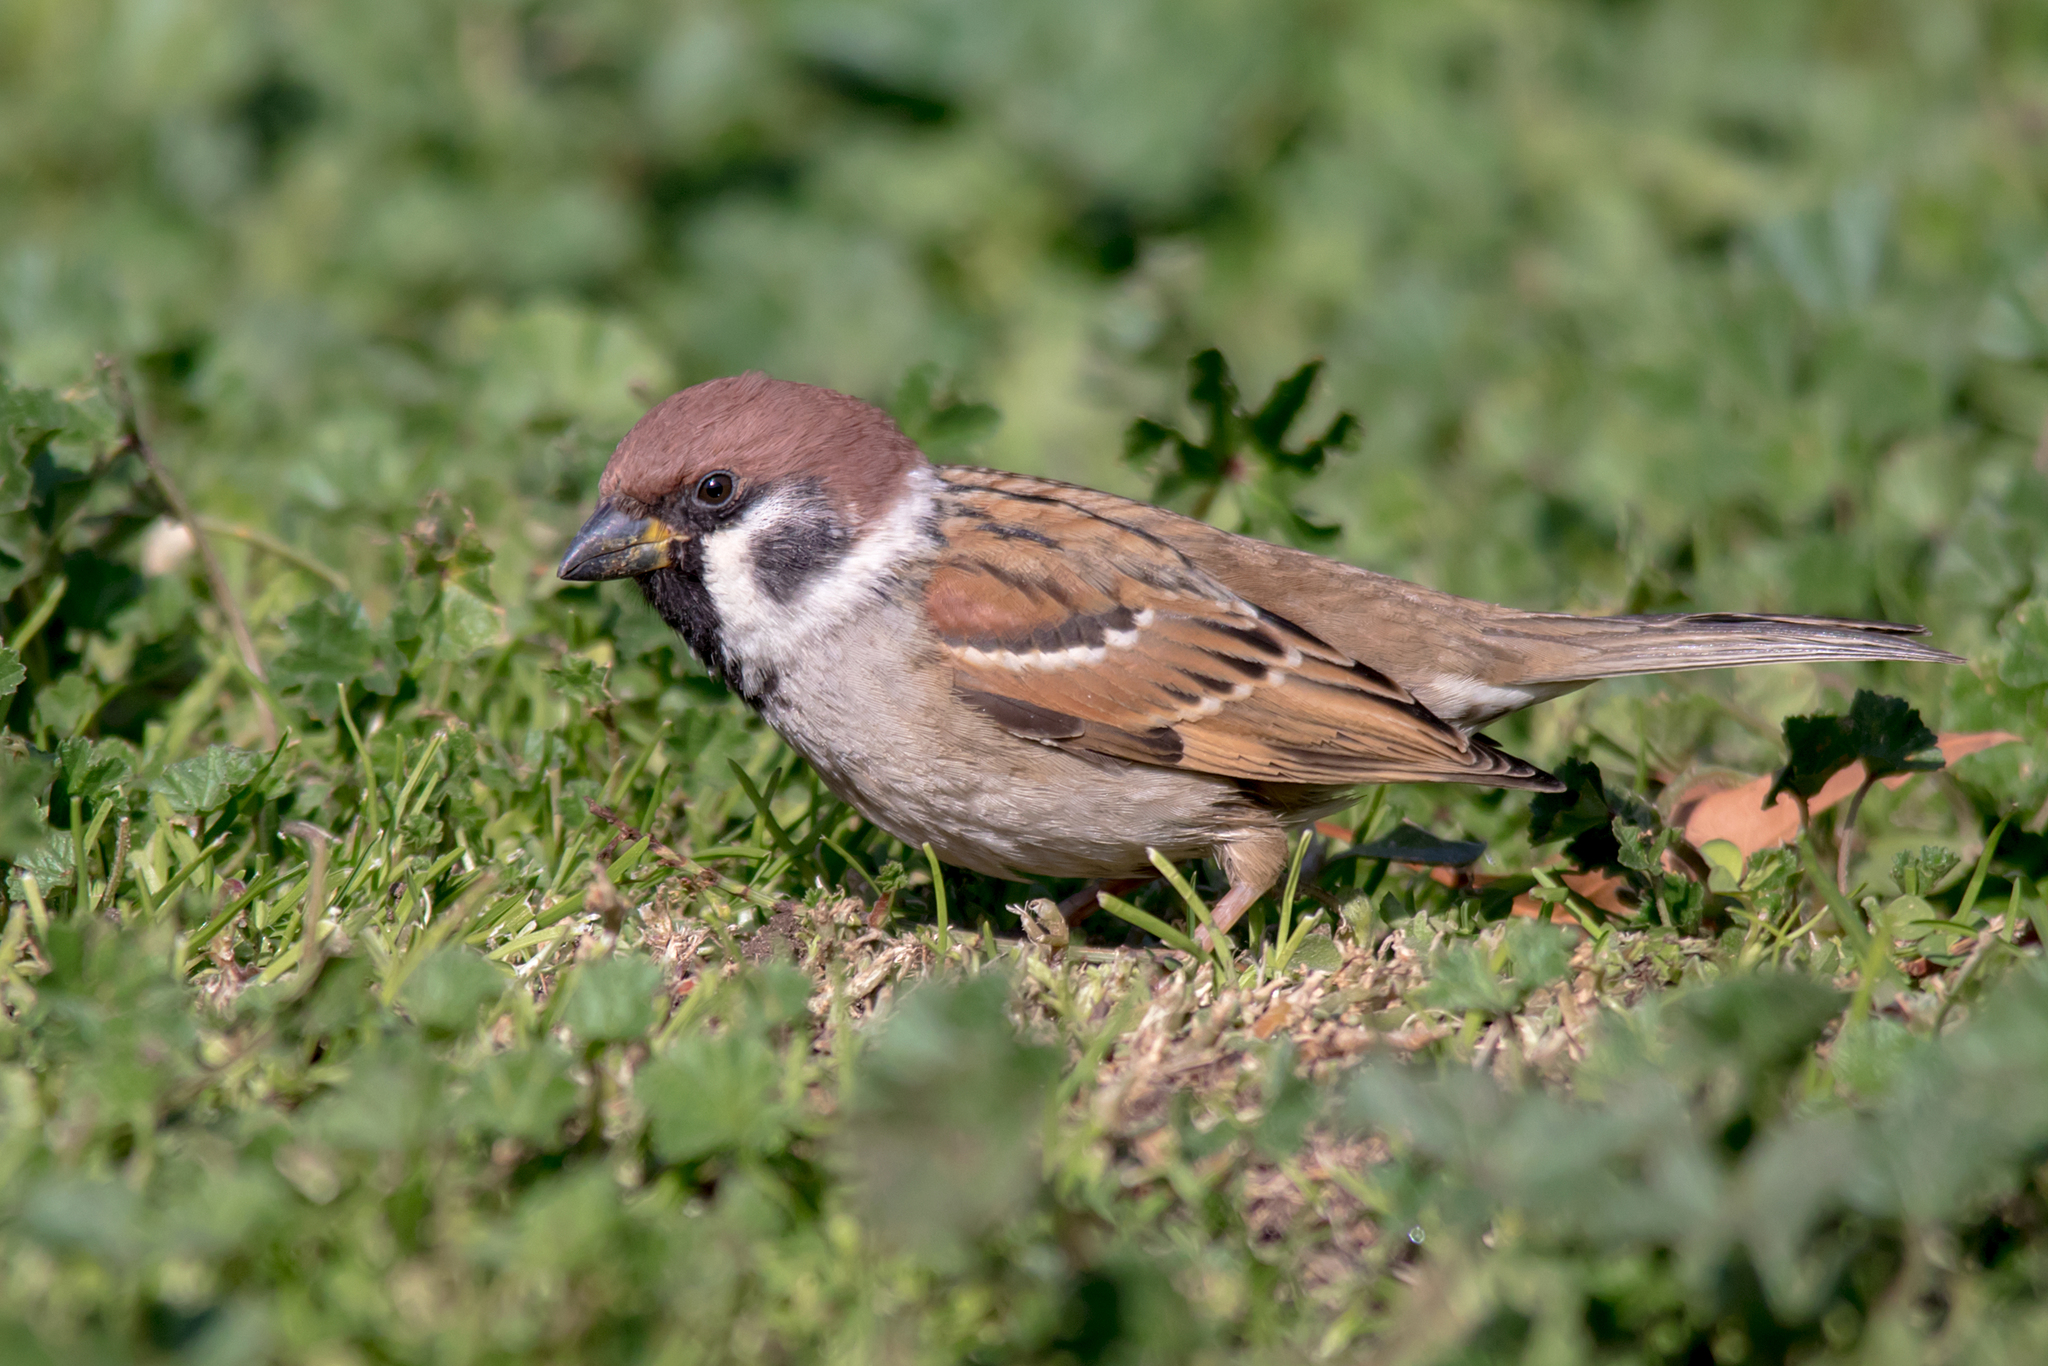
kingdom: Animalia
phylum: Chordata
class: Aves
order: Passeriformes
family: Passeridae
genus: Passer
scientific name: Passer montanus
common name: Eurasian tree sparrow
